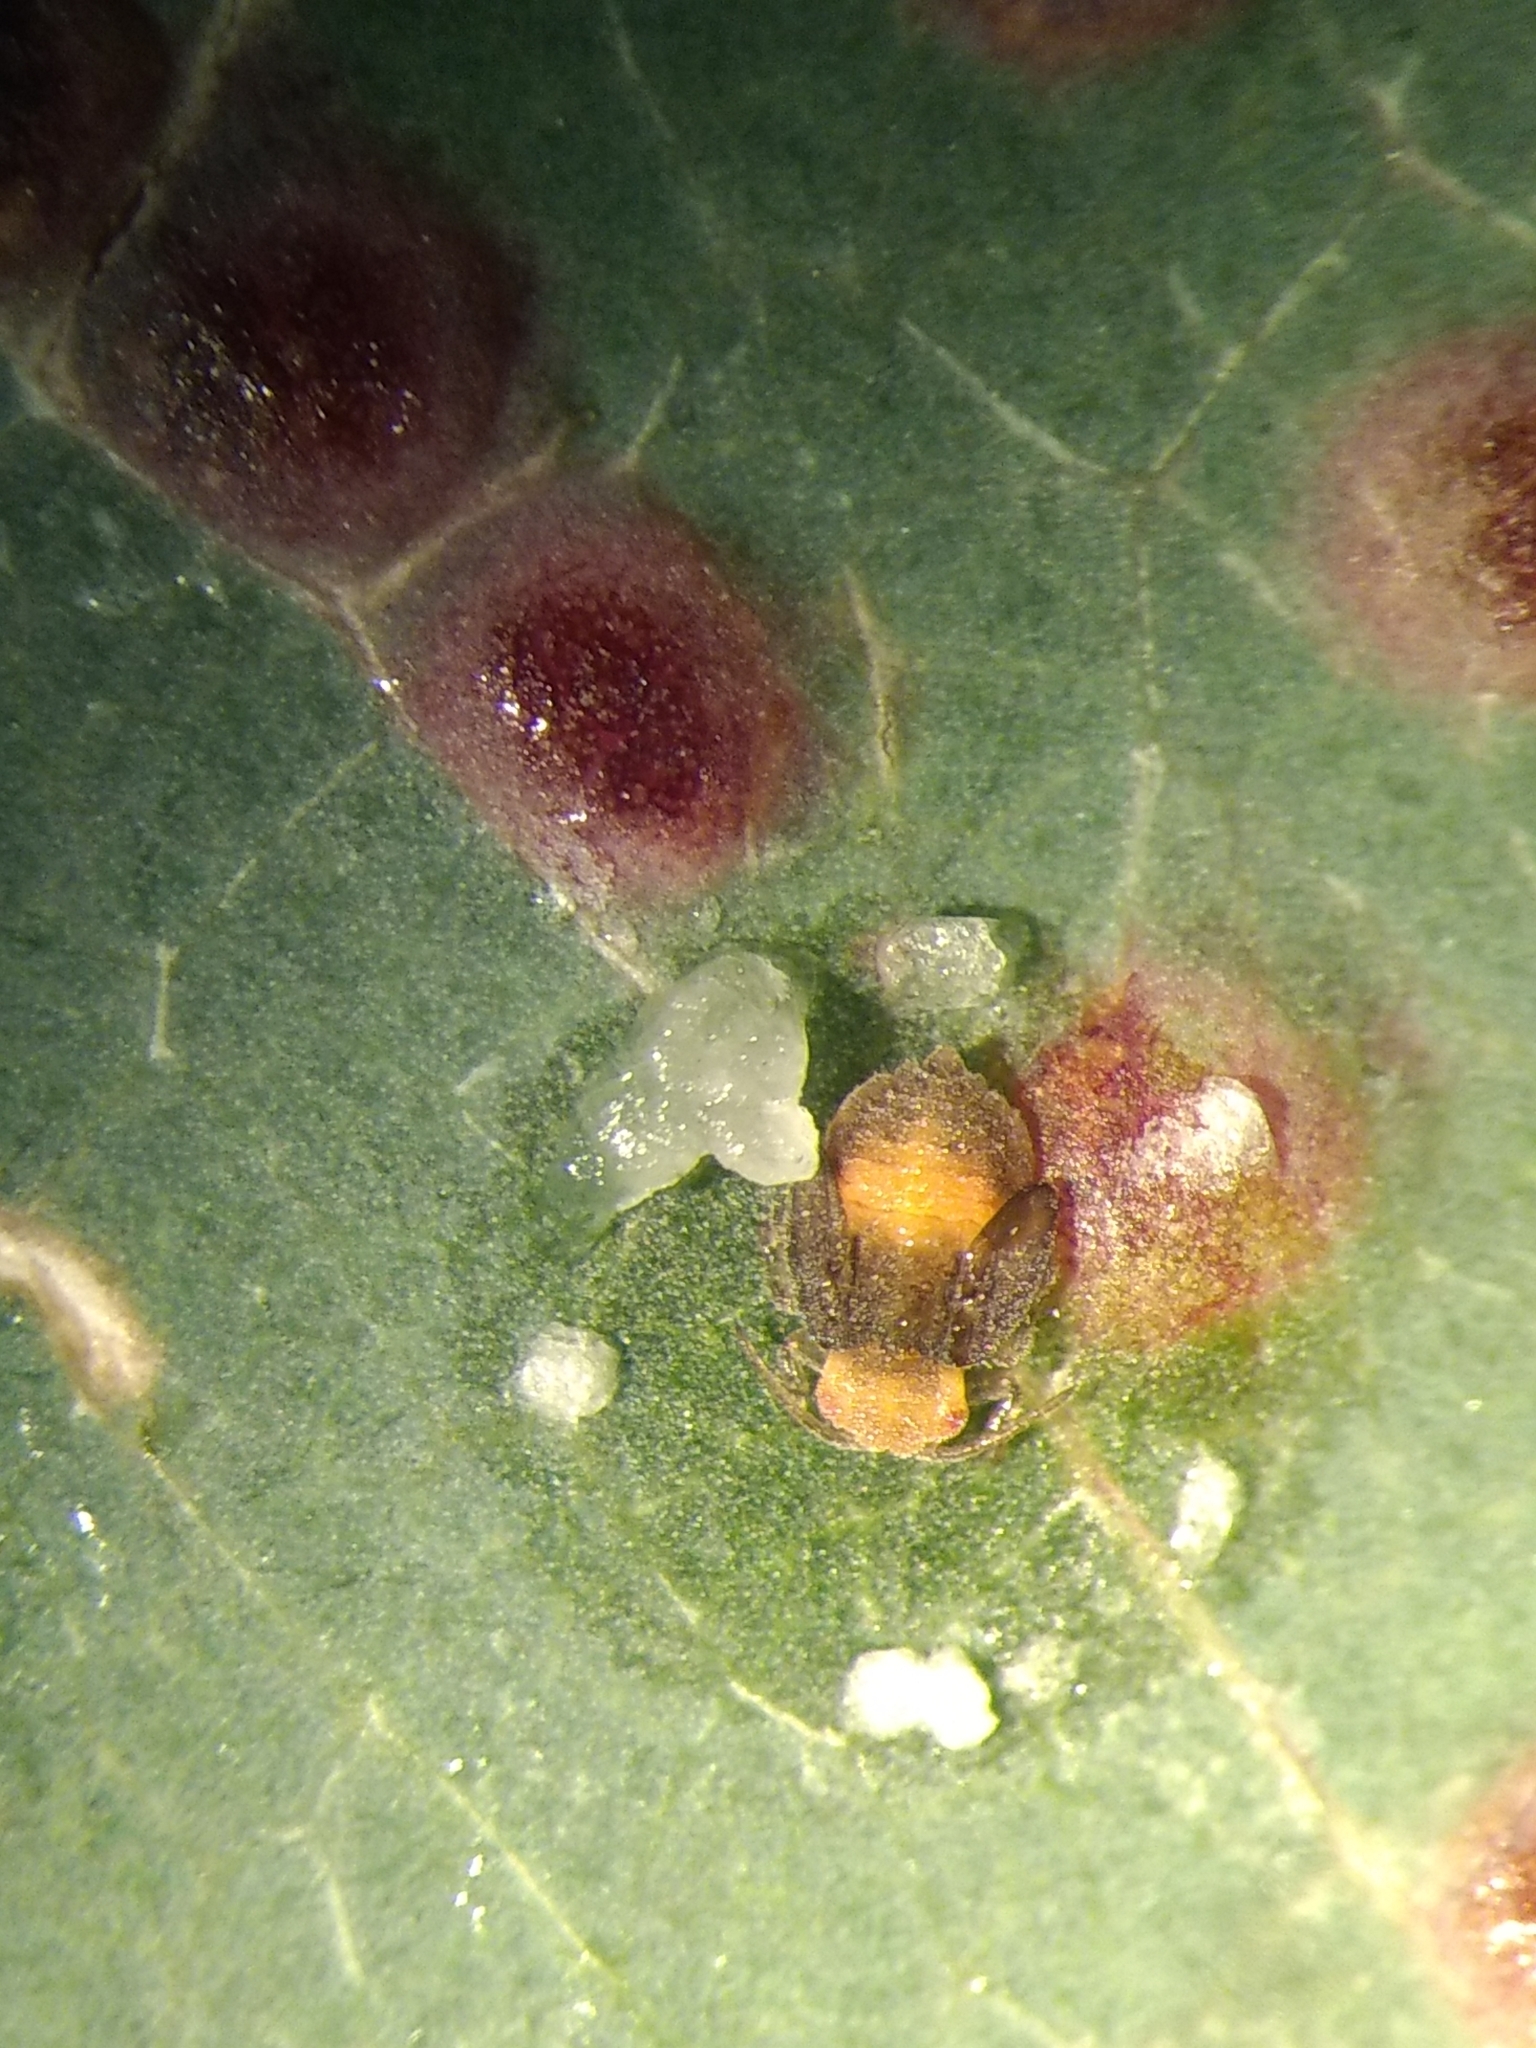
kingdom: Animalia
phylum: Arthropoda
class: Insecta
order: Hemiptera
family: Aphalaridae
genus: Glycaspis
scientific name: Glycaspis brimblecombei
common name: Red gum lerp psyllid
